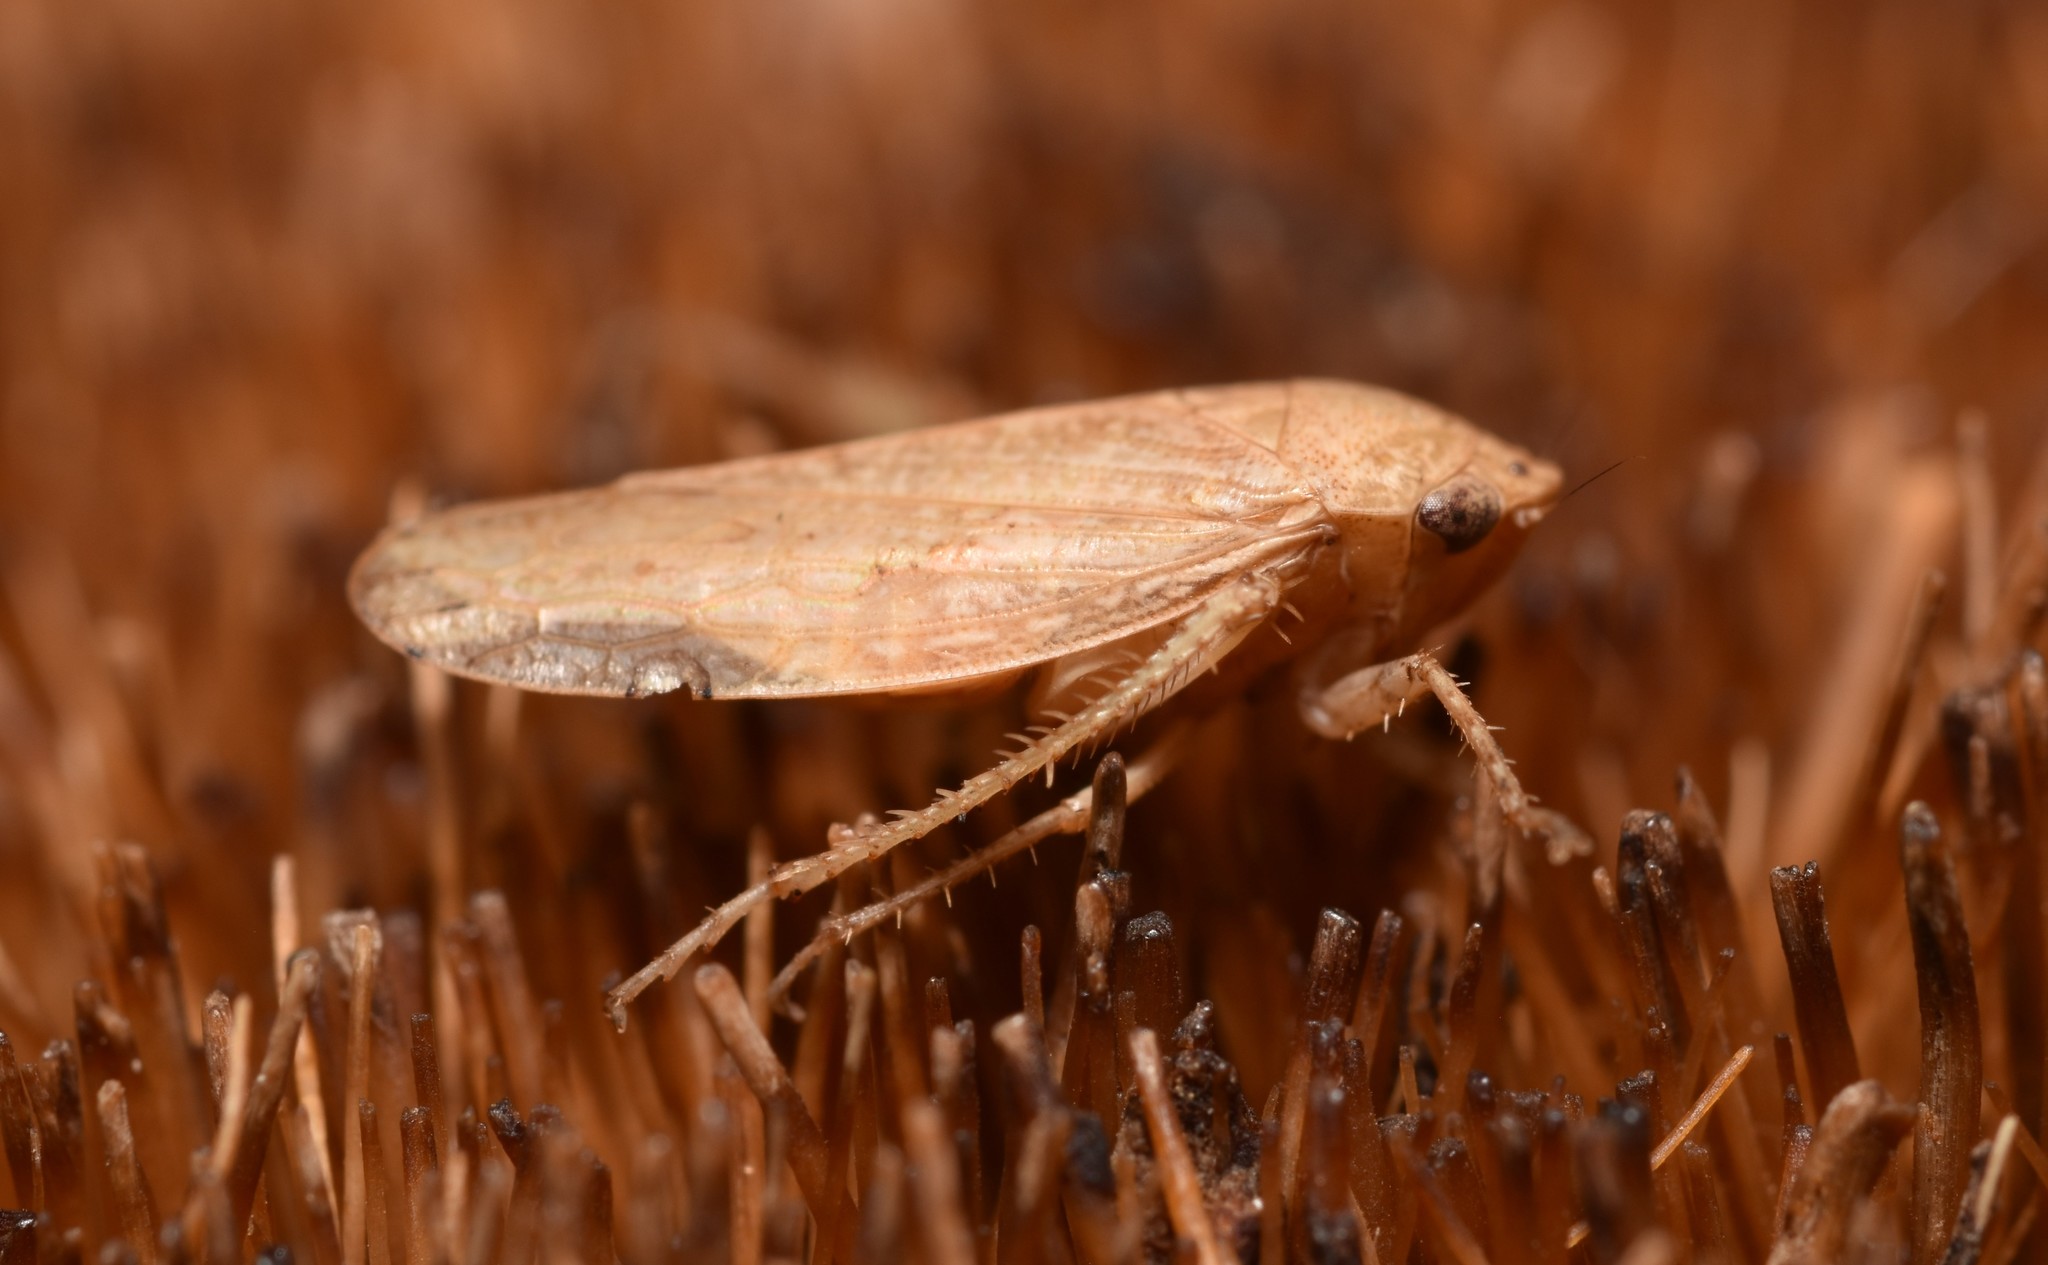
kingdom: Animalia
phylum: Arthropoda
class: Insecta
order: Hemiptera
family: Cicadellidae
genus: Curtara
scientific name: Curtara insularis
